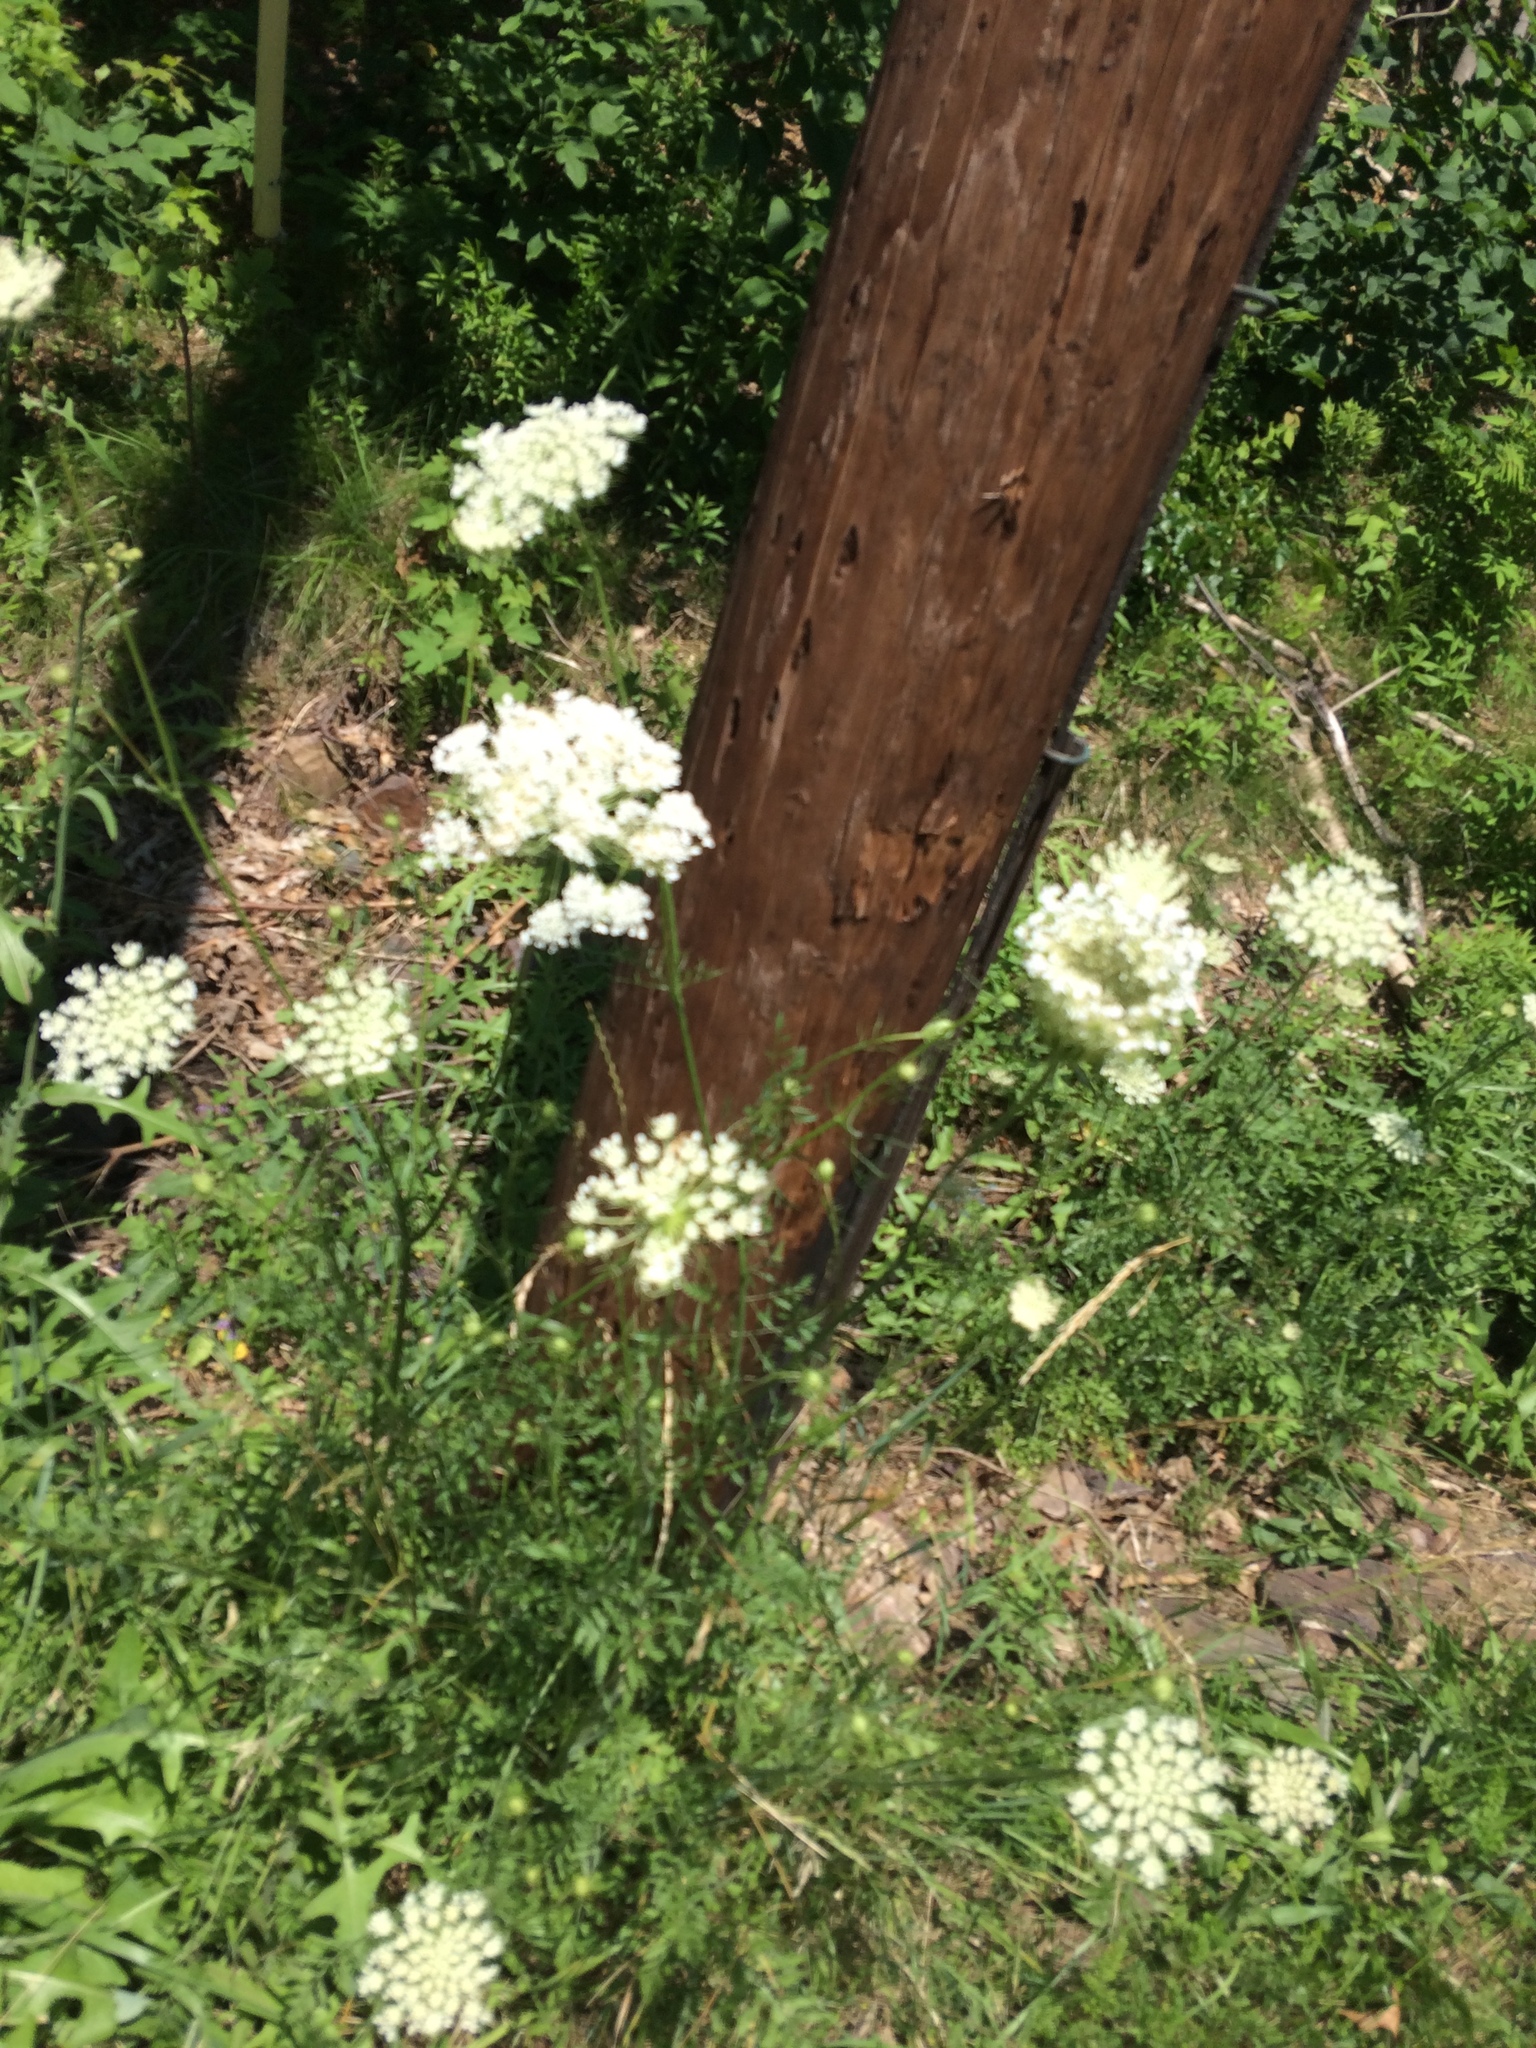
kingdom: Plantae
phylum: Tracheophyta
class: Magnoliopsida
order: Apiales
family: Apiaceae
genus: Daucus
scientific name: Daucus carota
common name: Wild carrot
